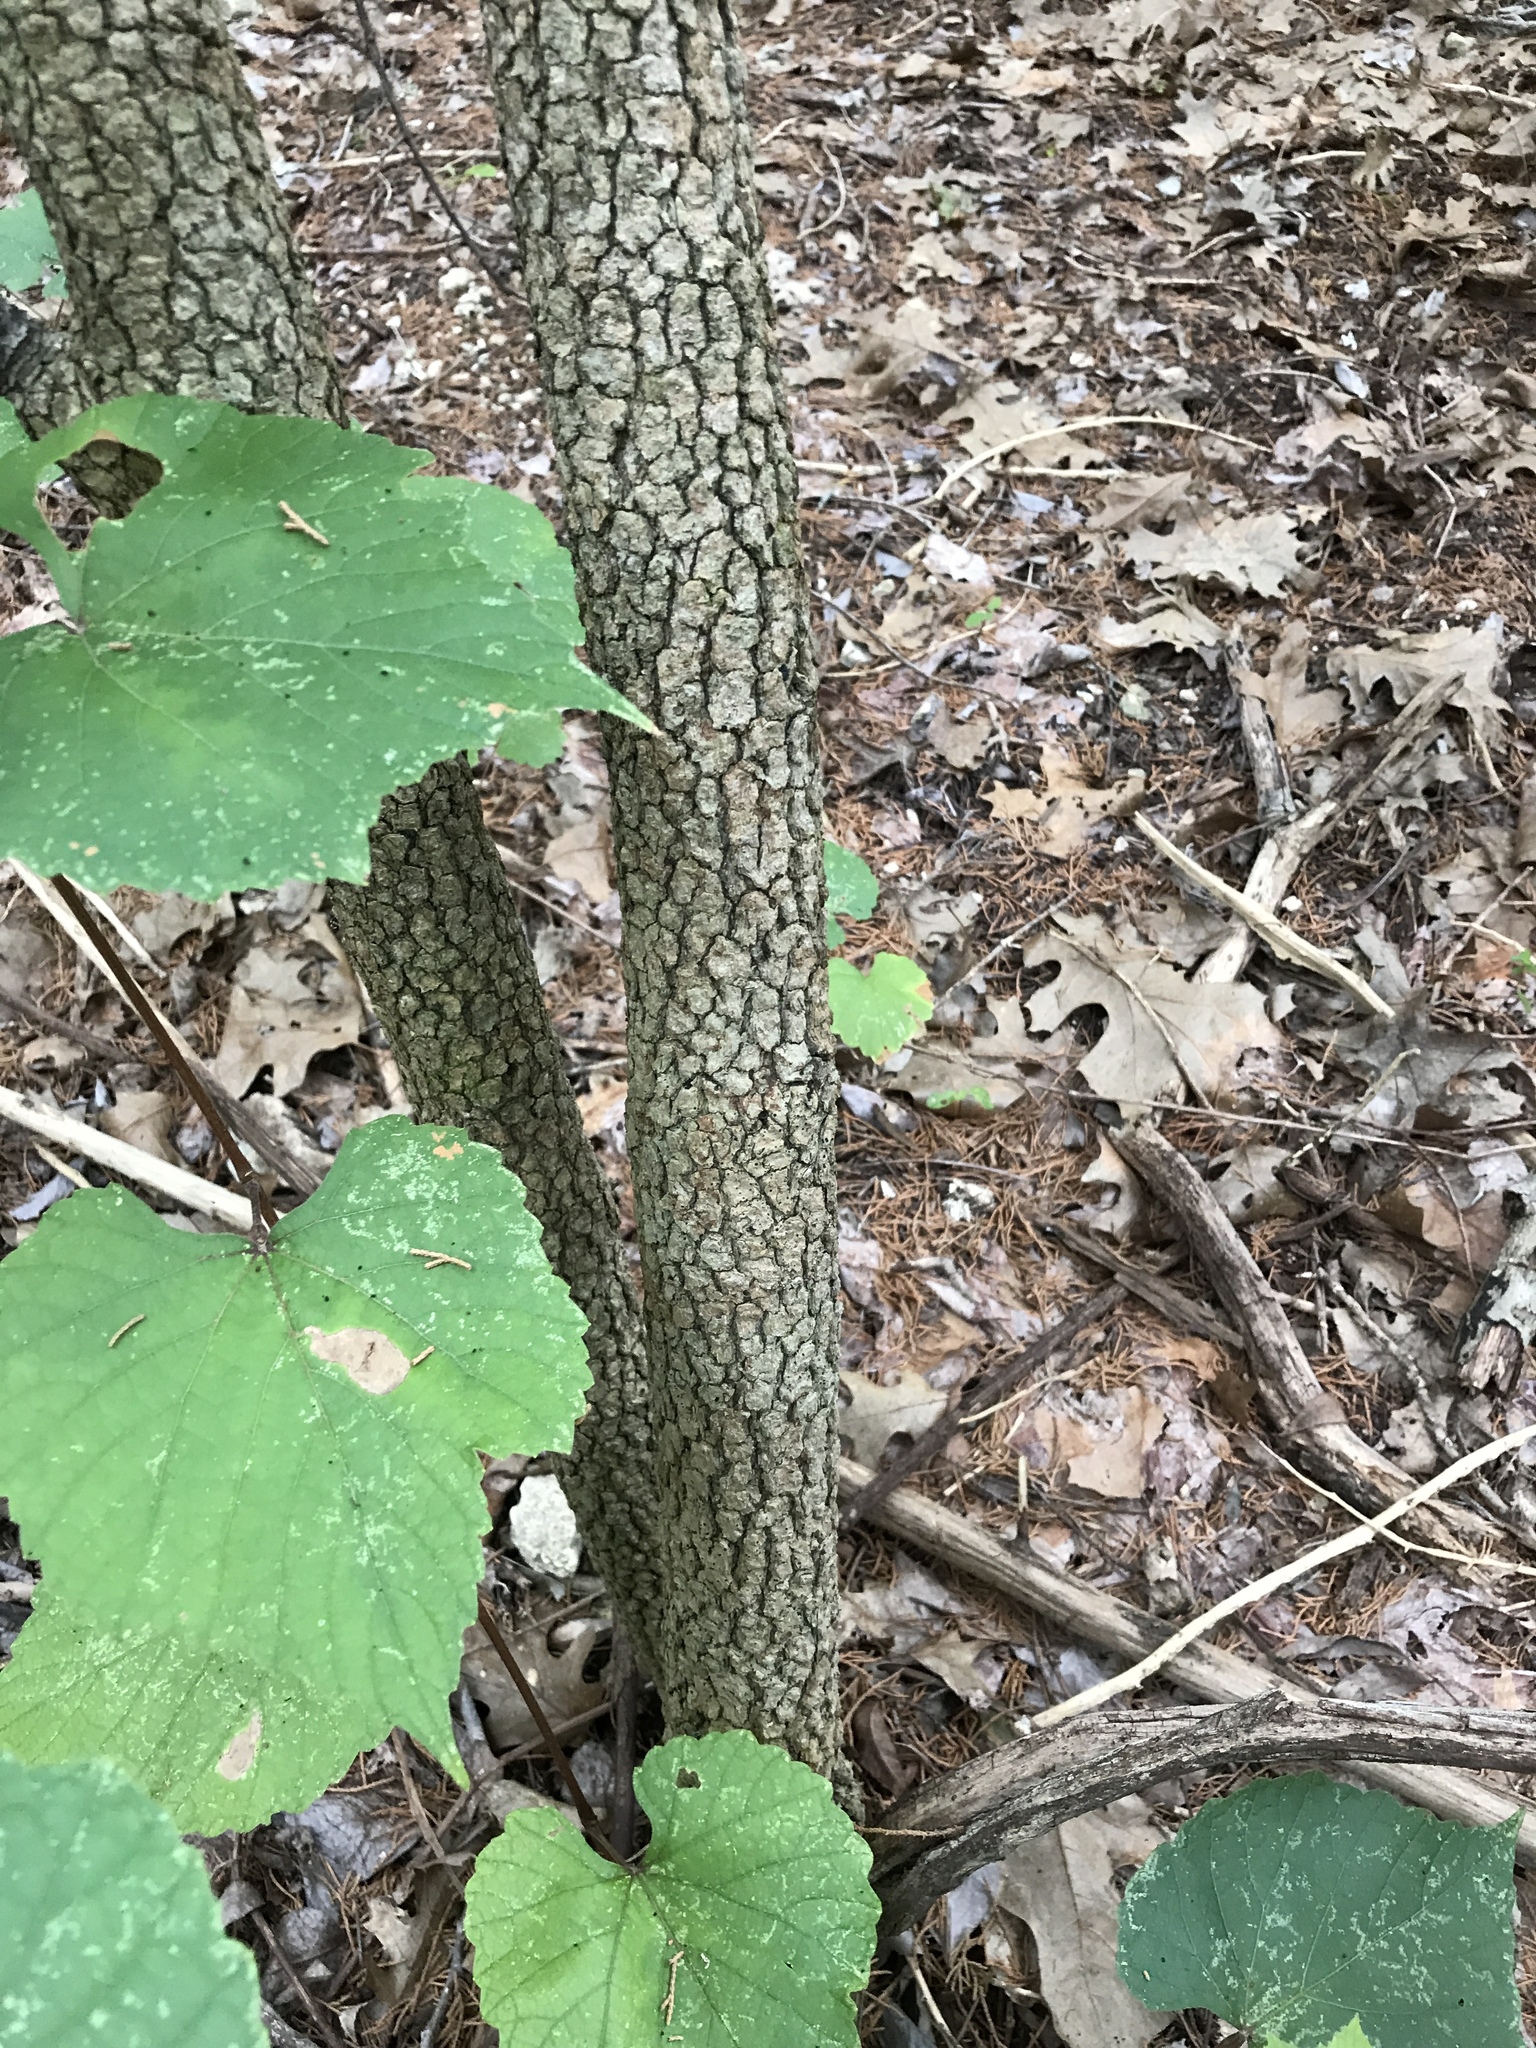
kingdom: Plantae
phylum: Tracheophyta
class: Magnoliopsida
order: Dipsacales
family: Viburnaceae
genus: Viburnum
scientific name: Viburnum rufidulum
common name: Blue haw
